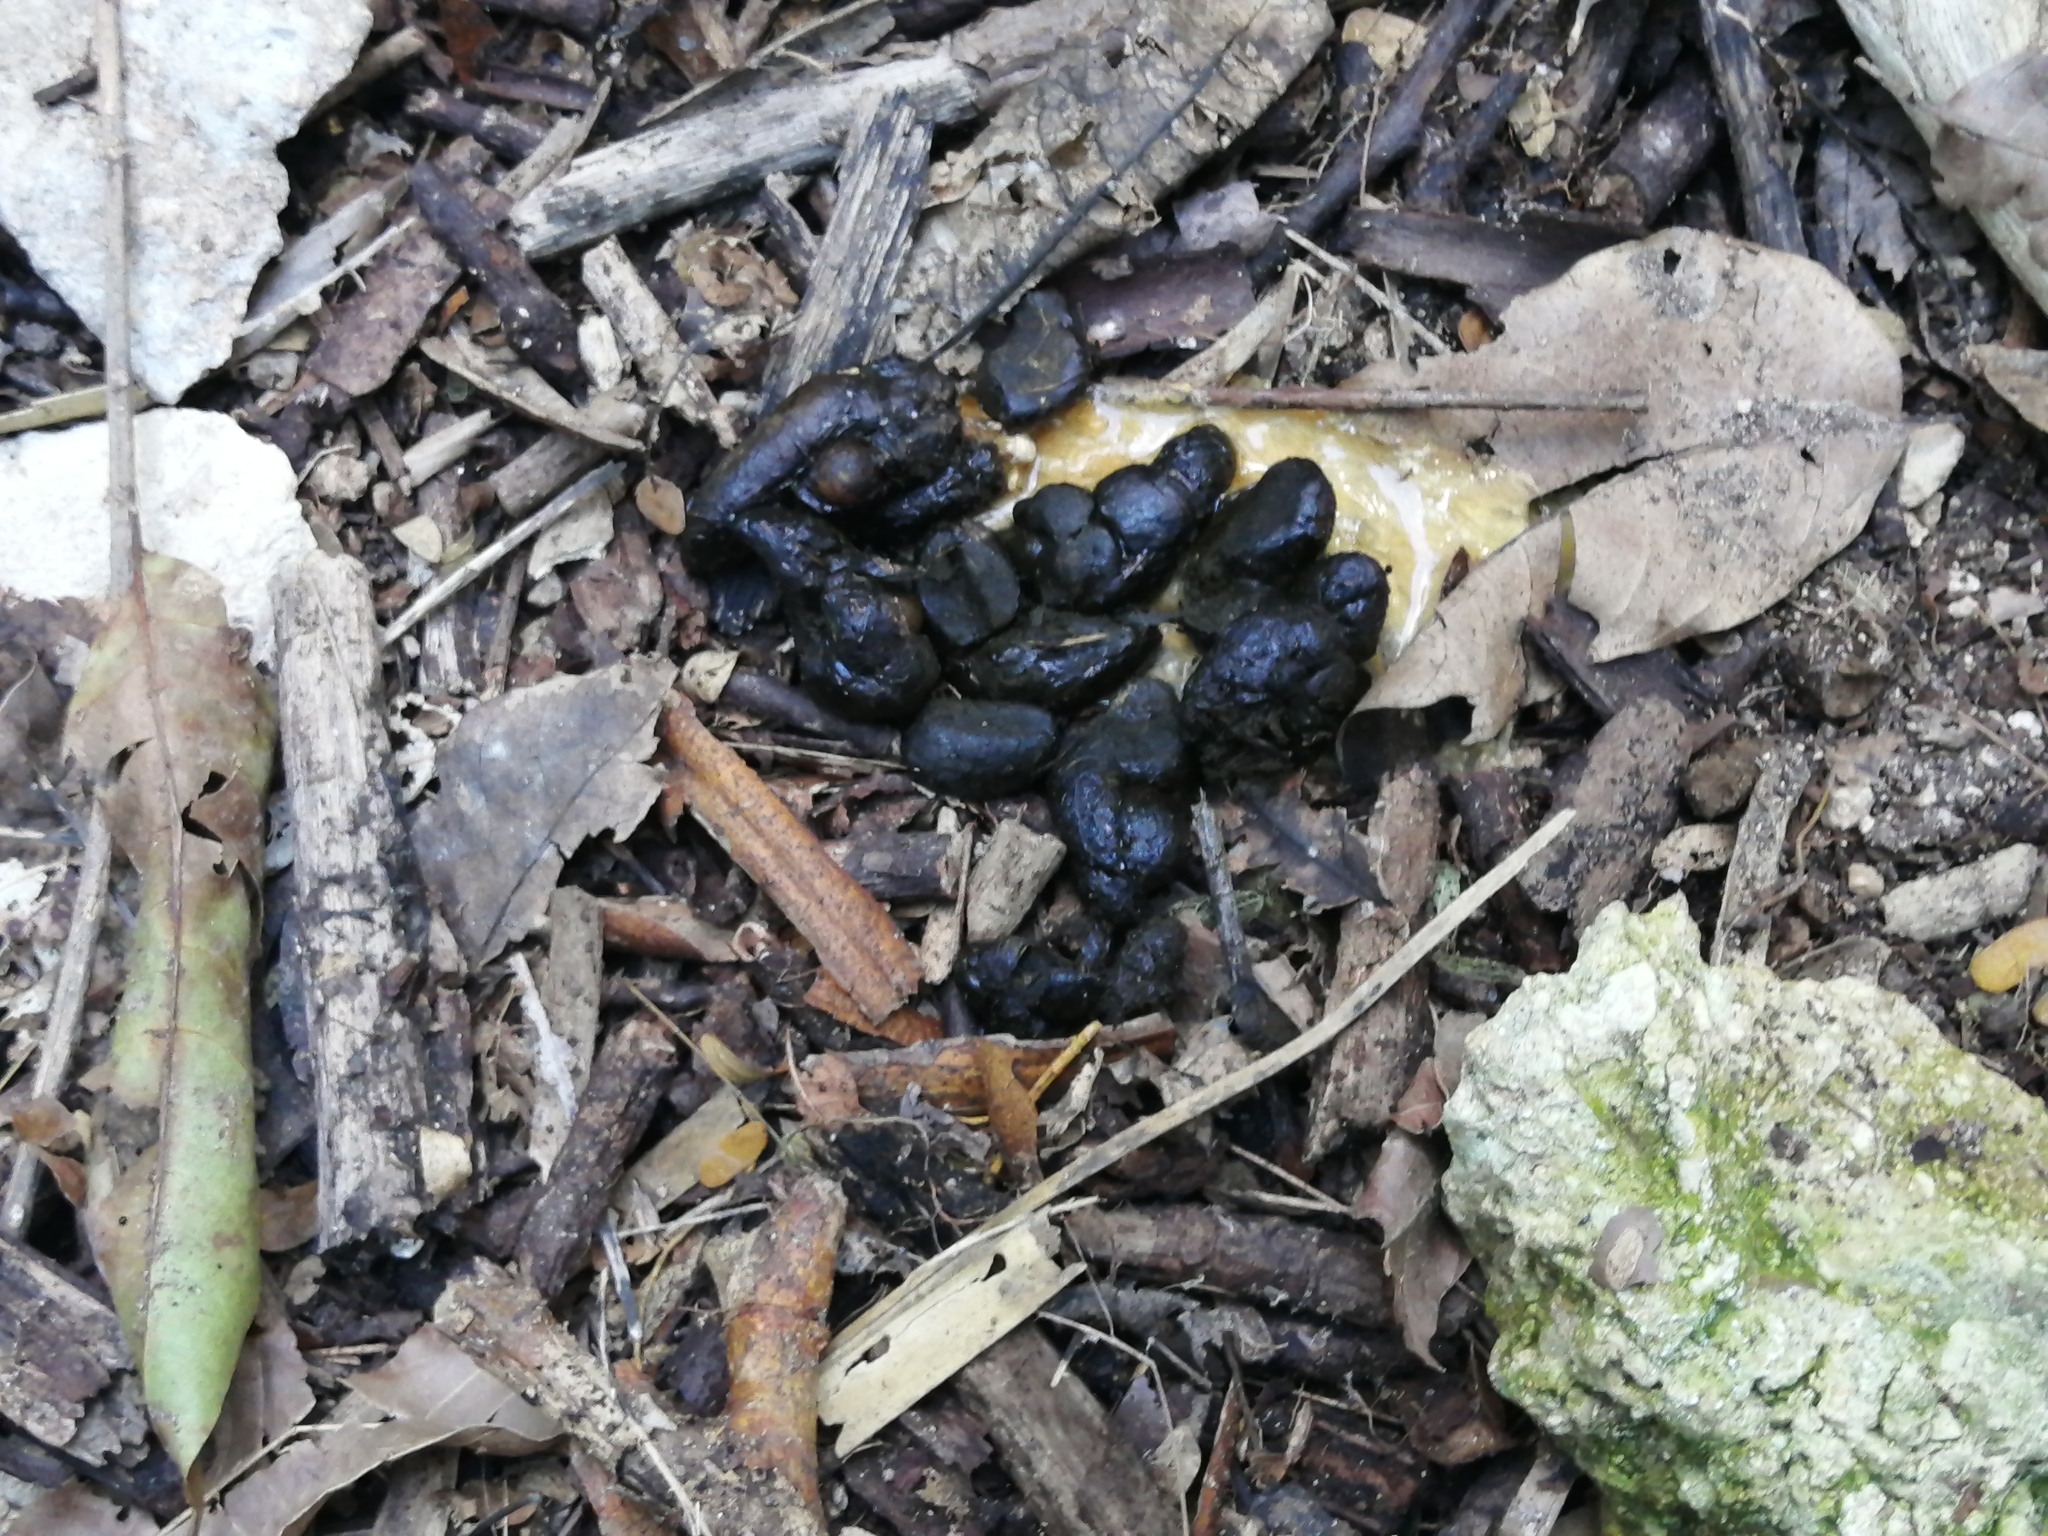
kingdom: Animalia
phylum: Chordata
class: Mammalia
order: Rodentia
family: Dasyproctidae
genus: Dasyprocta
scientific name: Dasyprocta punctata
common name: Central american agouti
